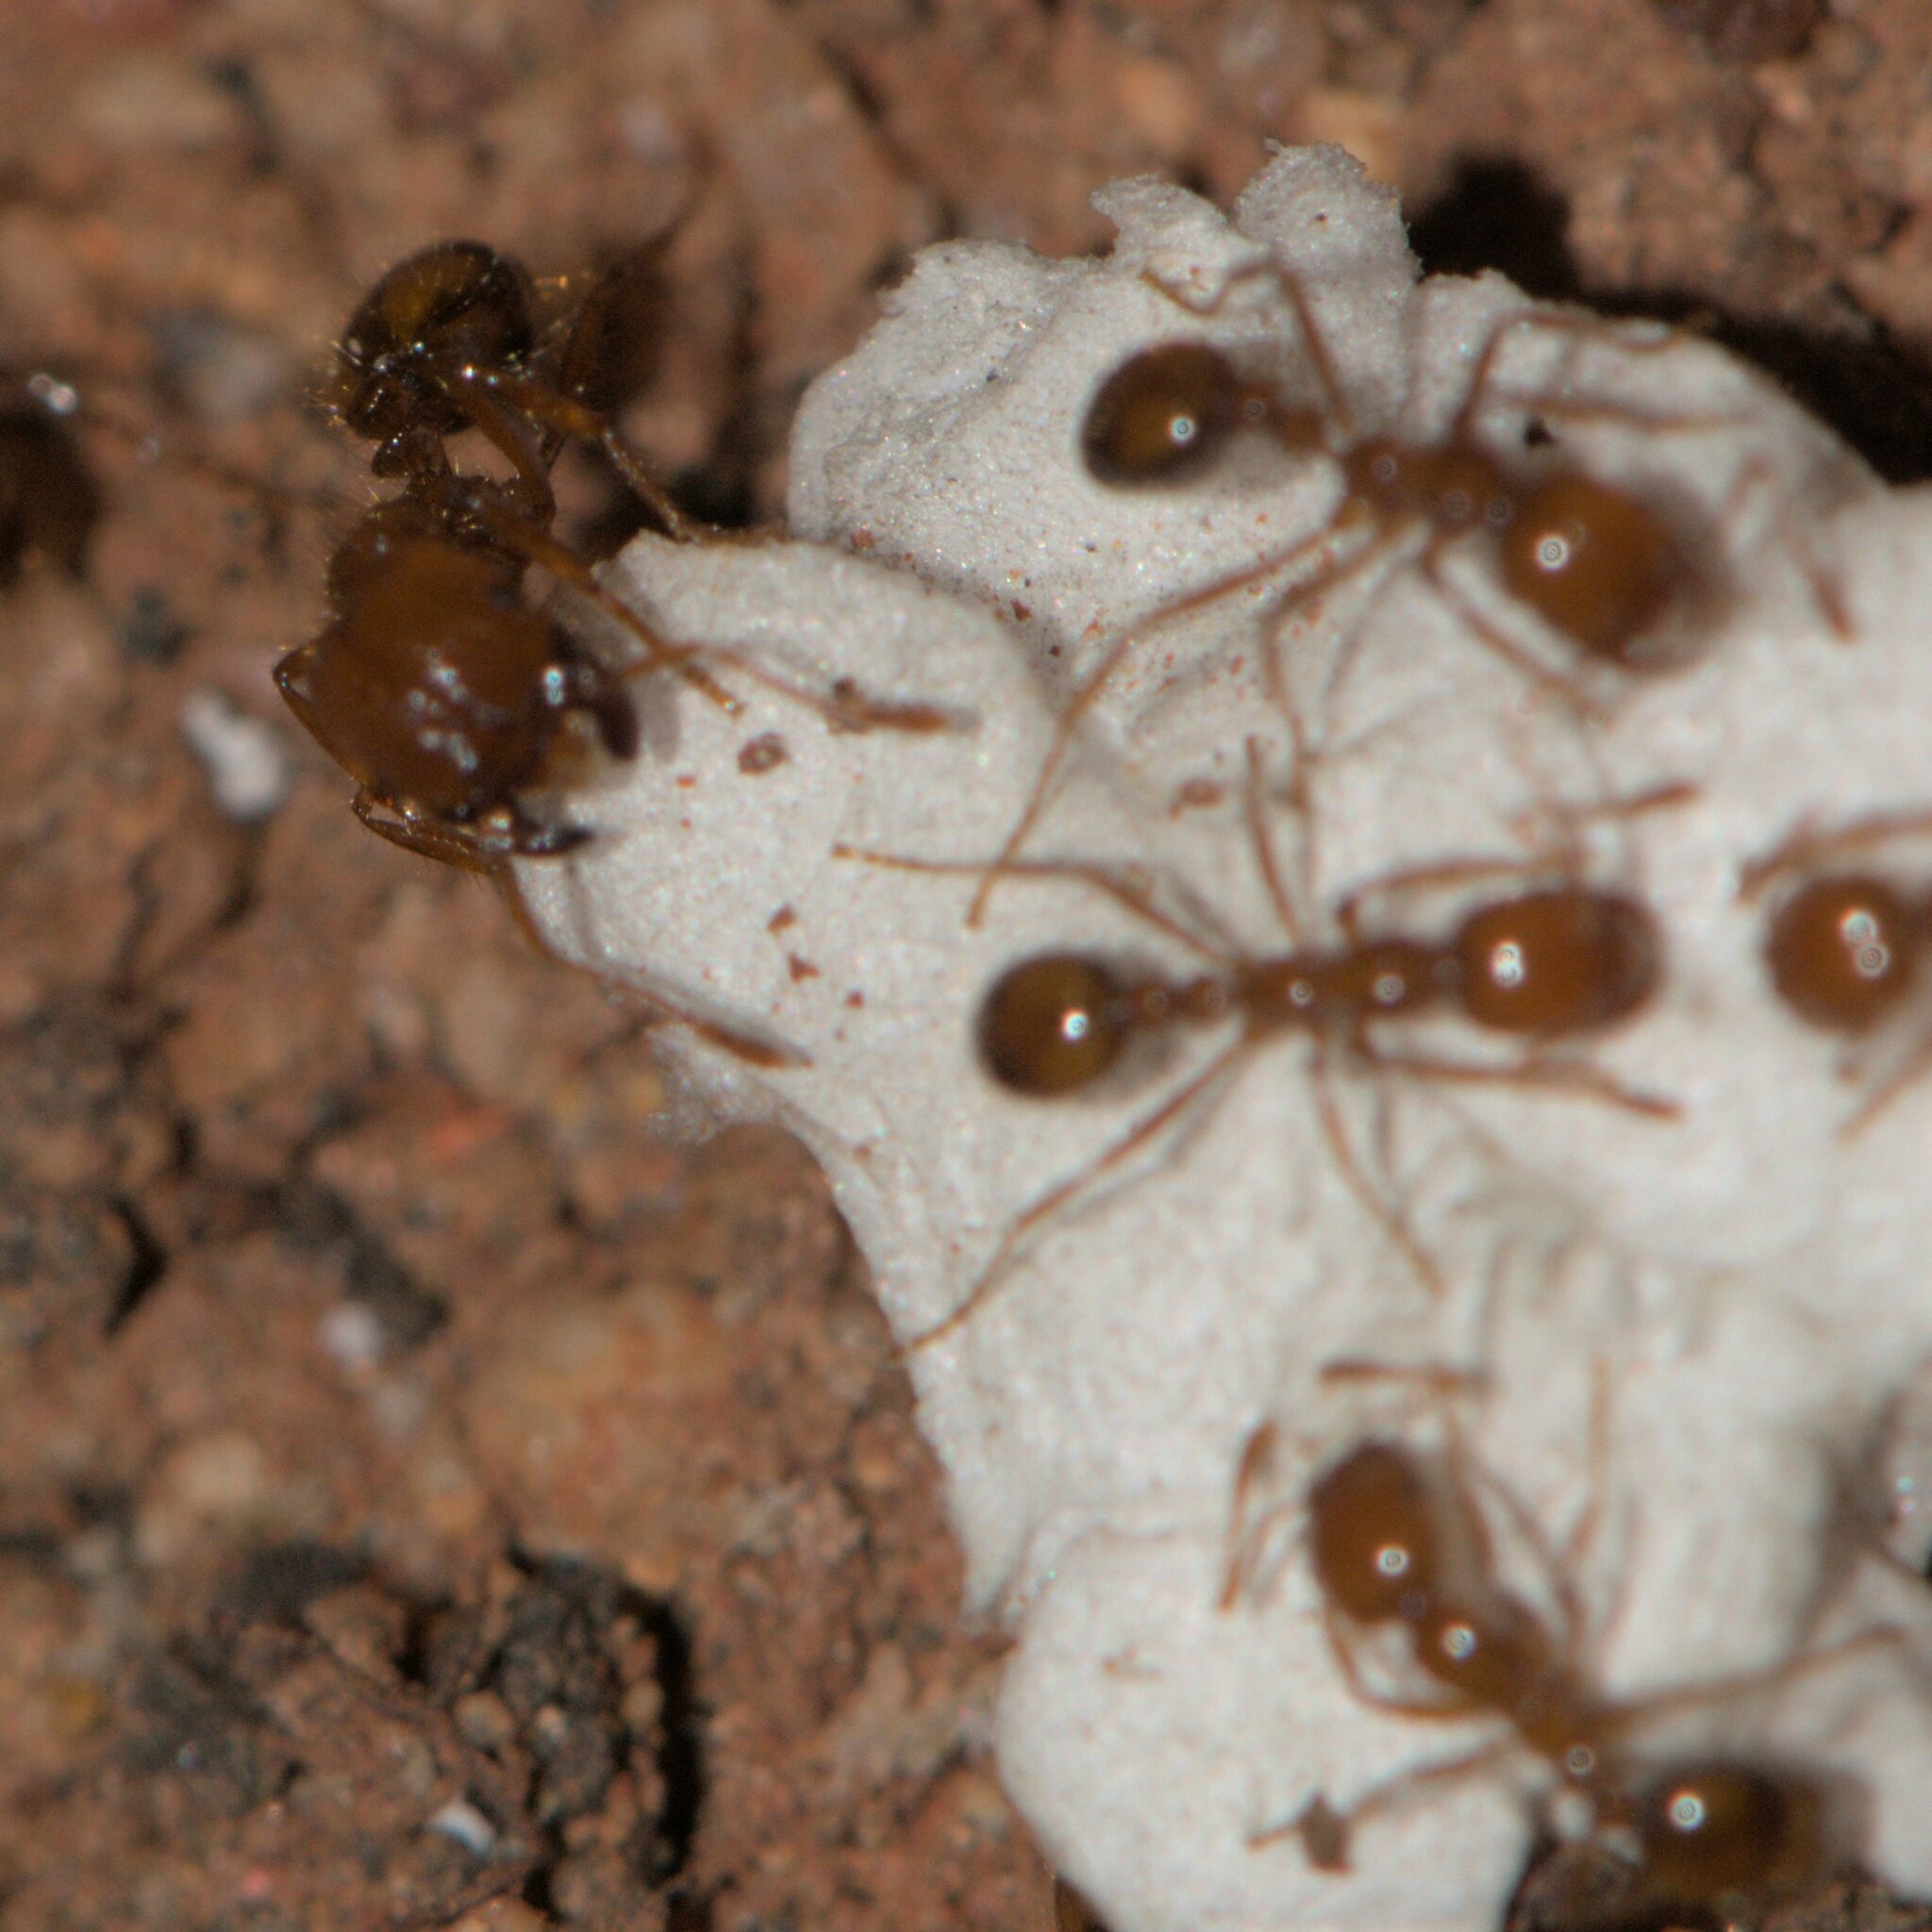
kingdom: Animalia
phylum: Arthropoda
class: Insecta
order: Hymenoptera
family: Formicidae
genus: Solenopsis
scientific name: Solenopsis geminata
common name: Tropical fire ant
